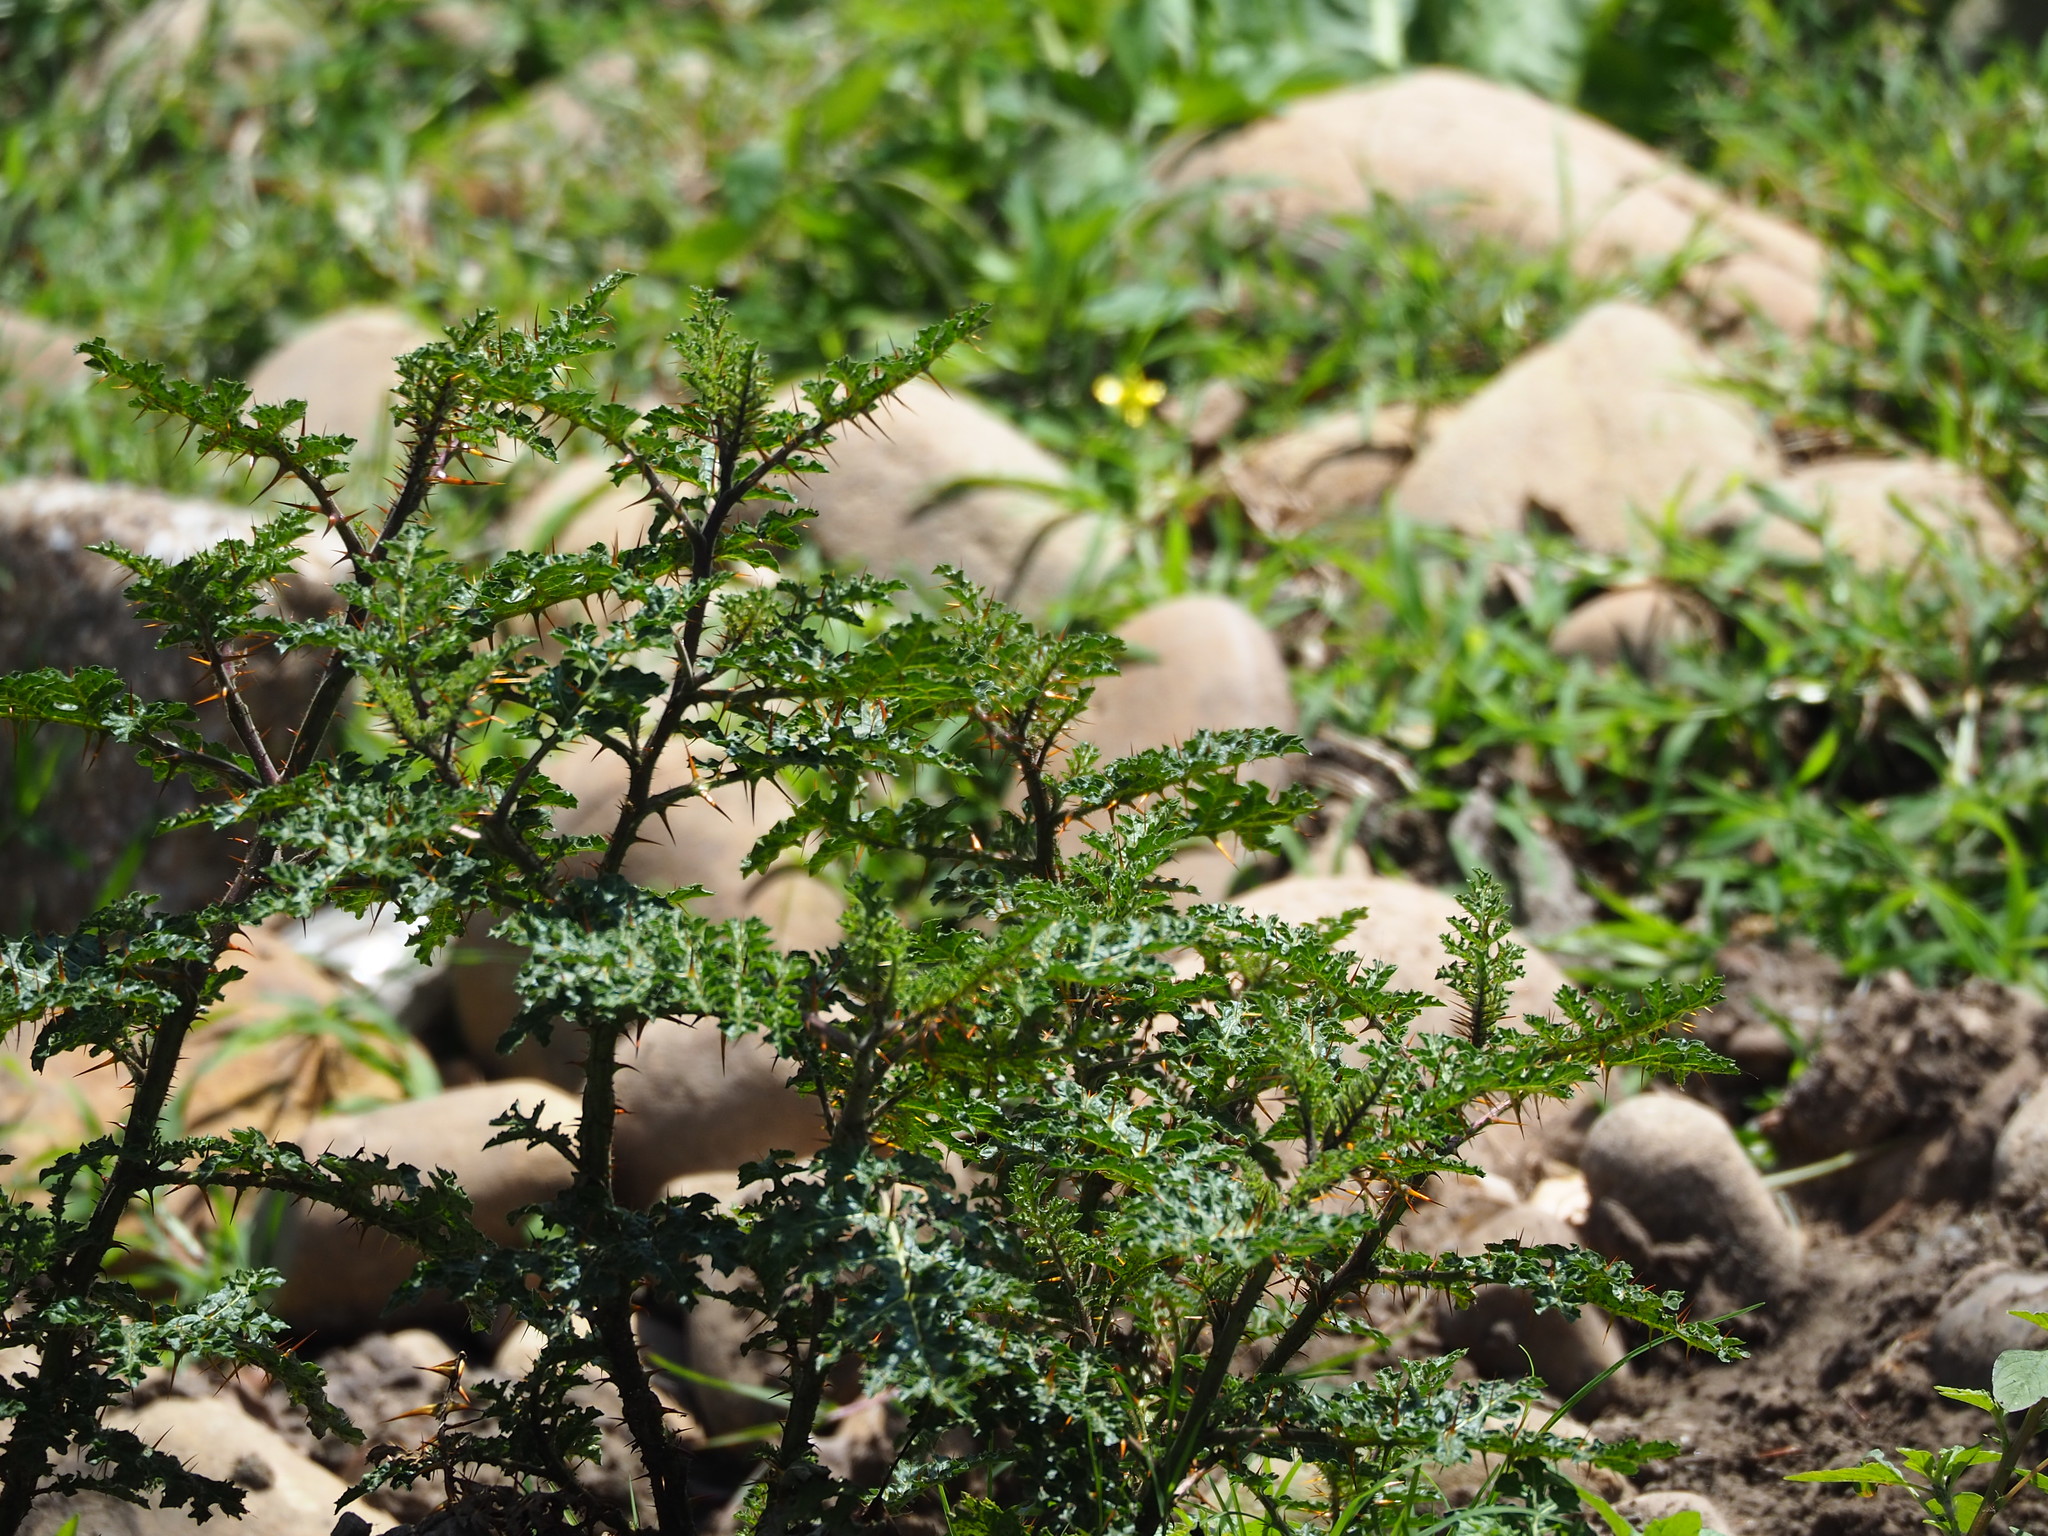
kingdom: Plantae
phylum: Tracheophyta
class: Magnoliopsida
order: Solanales
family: Solanaceae
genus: Solanum
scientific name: Solanum sisymbriifolium
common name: Red buffalo-bur
